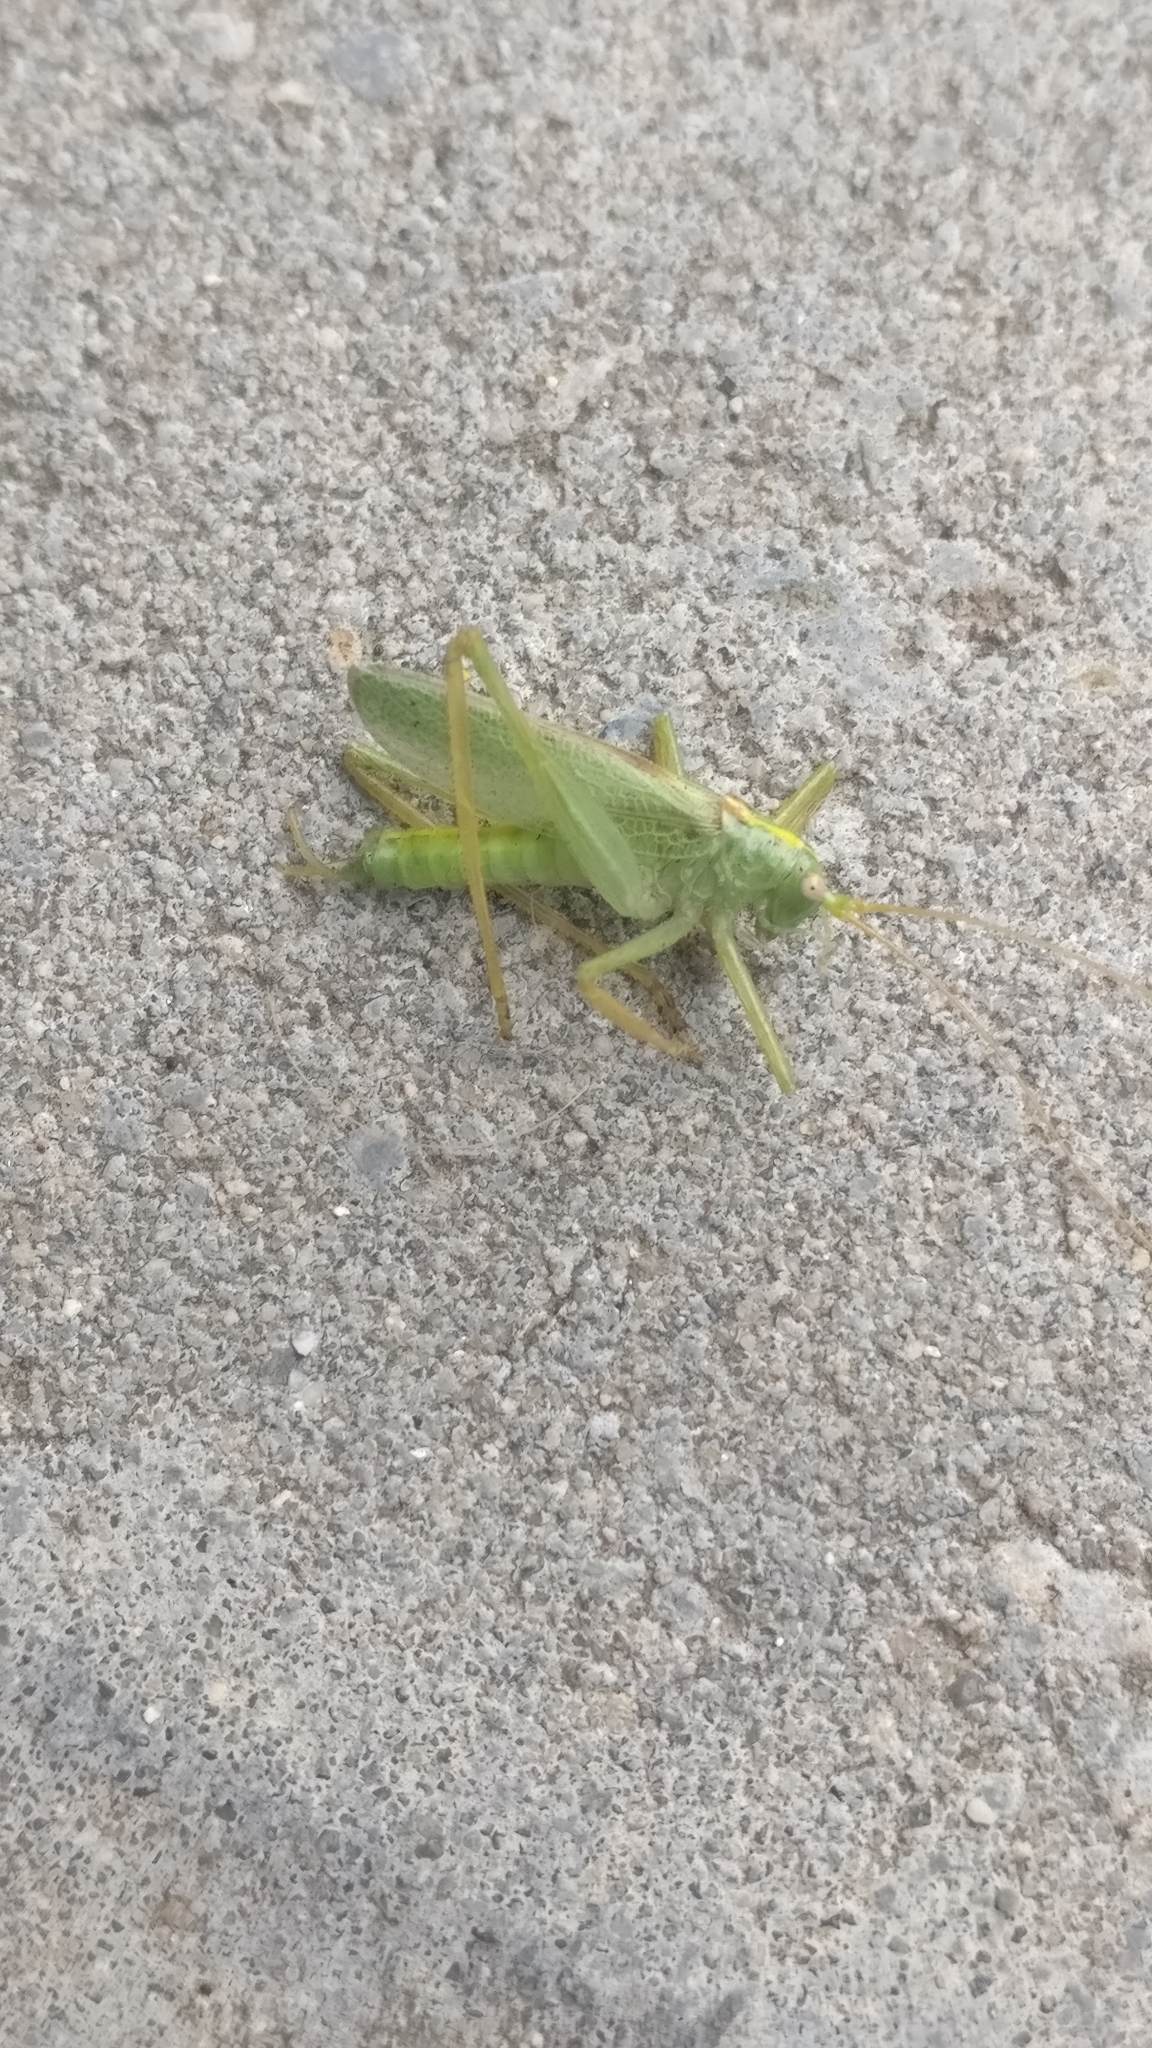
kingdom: Animalia
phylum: Arthropoda
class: Insecta
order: Orthoptera
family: Tettigoniidae
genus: Meconema
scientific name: Meconema thalassinum
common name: Oak bush-cricket
